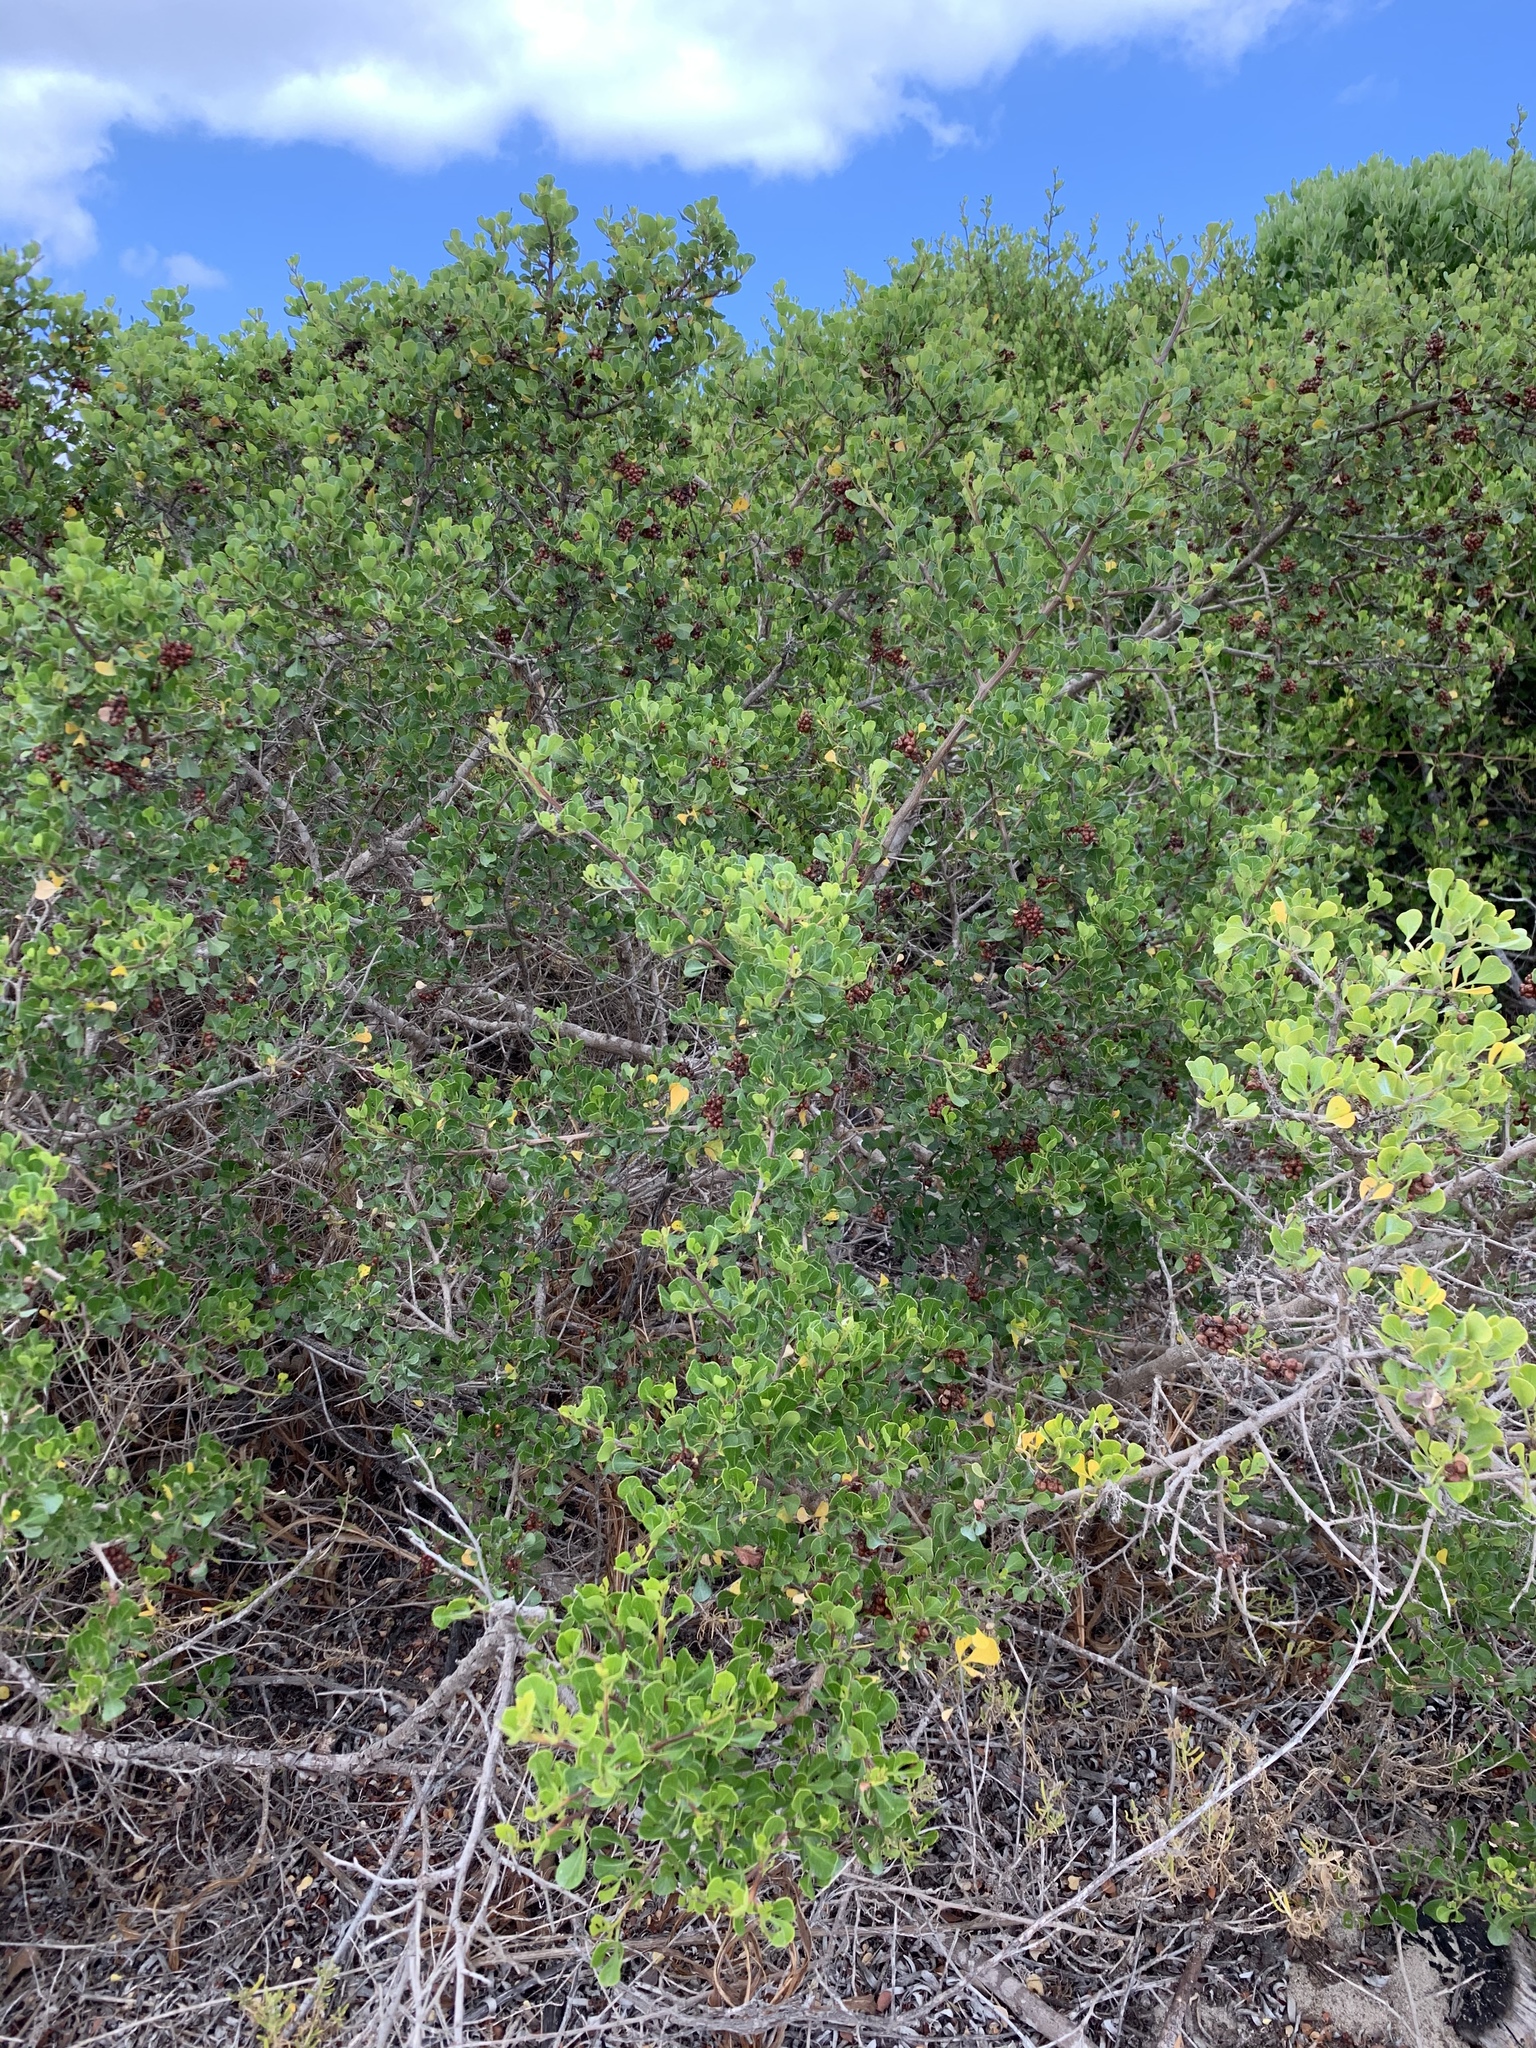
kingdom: Plantae
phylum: Tracheophyta
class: Magnoliopsida
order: Sapindales
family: Anacardiaceae
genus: Searsia
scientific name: Searsia glauca
